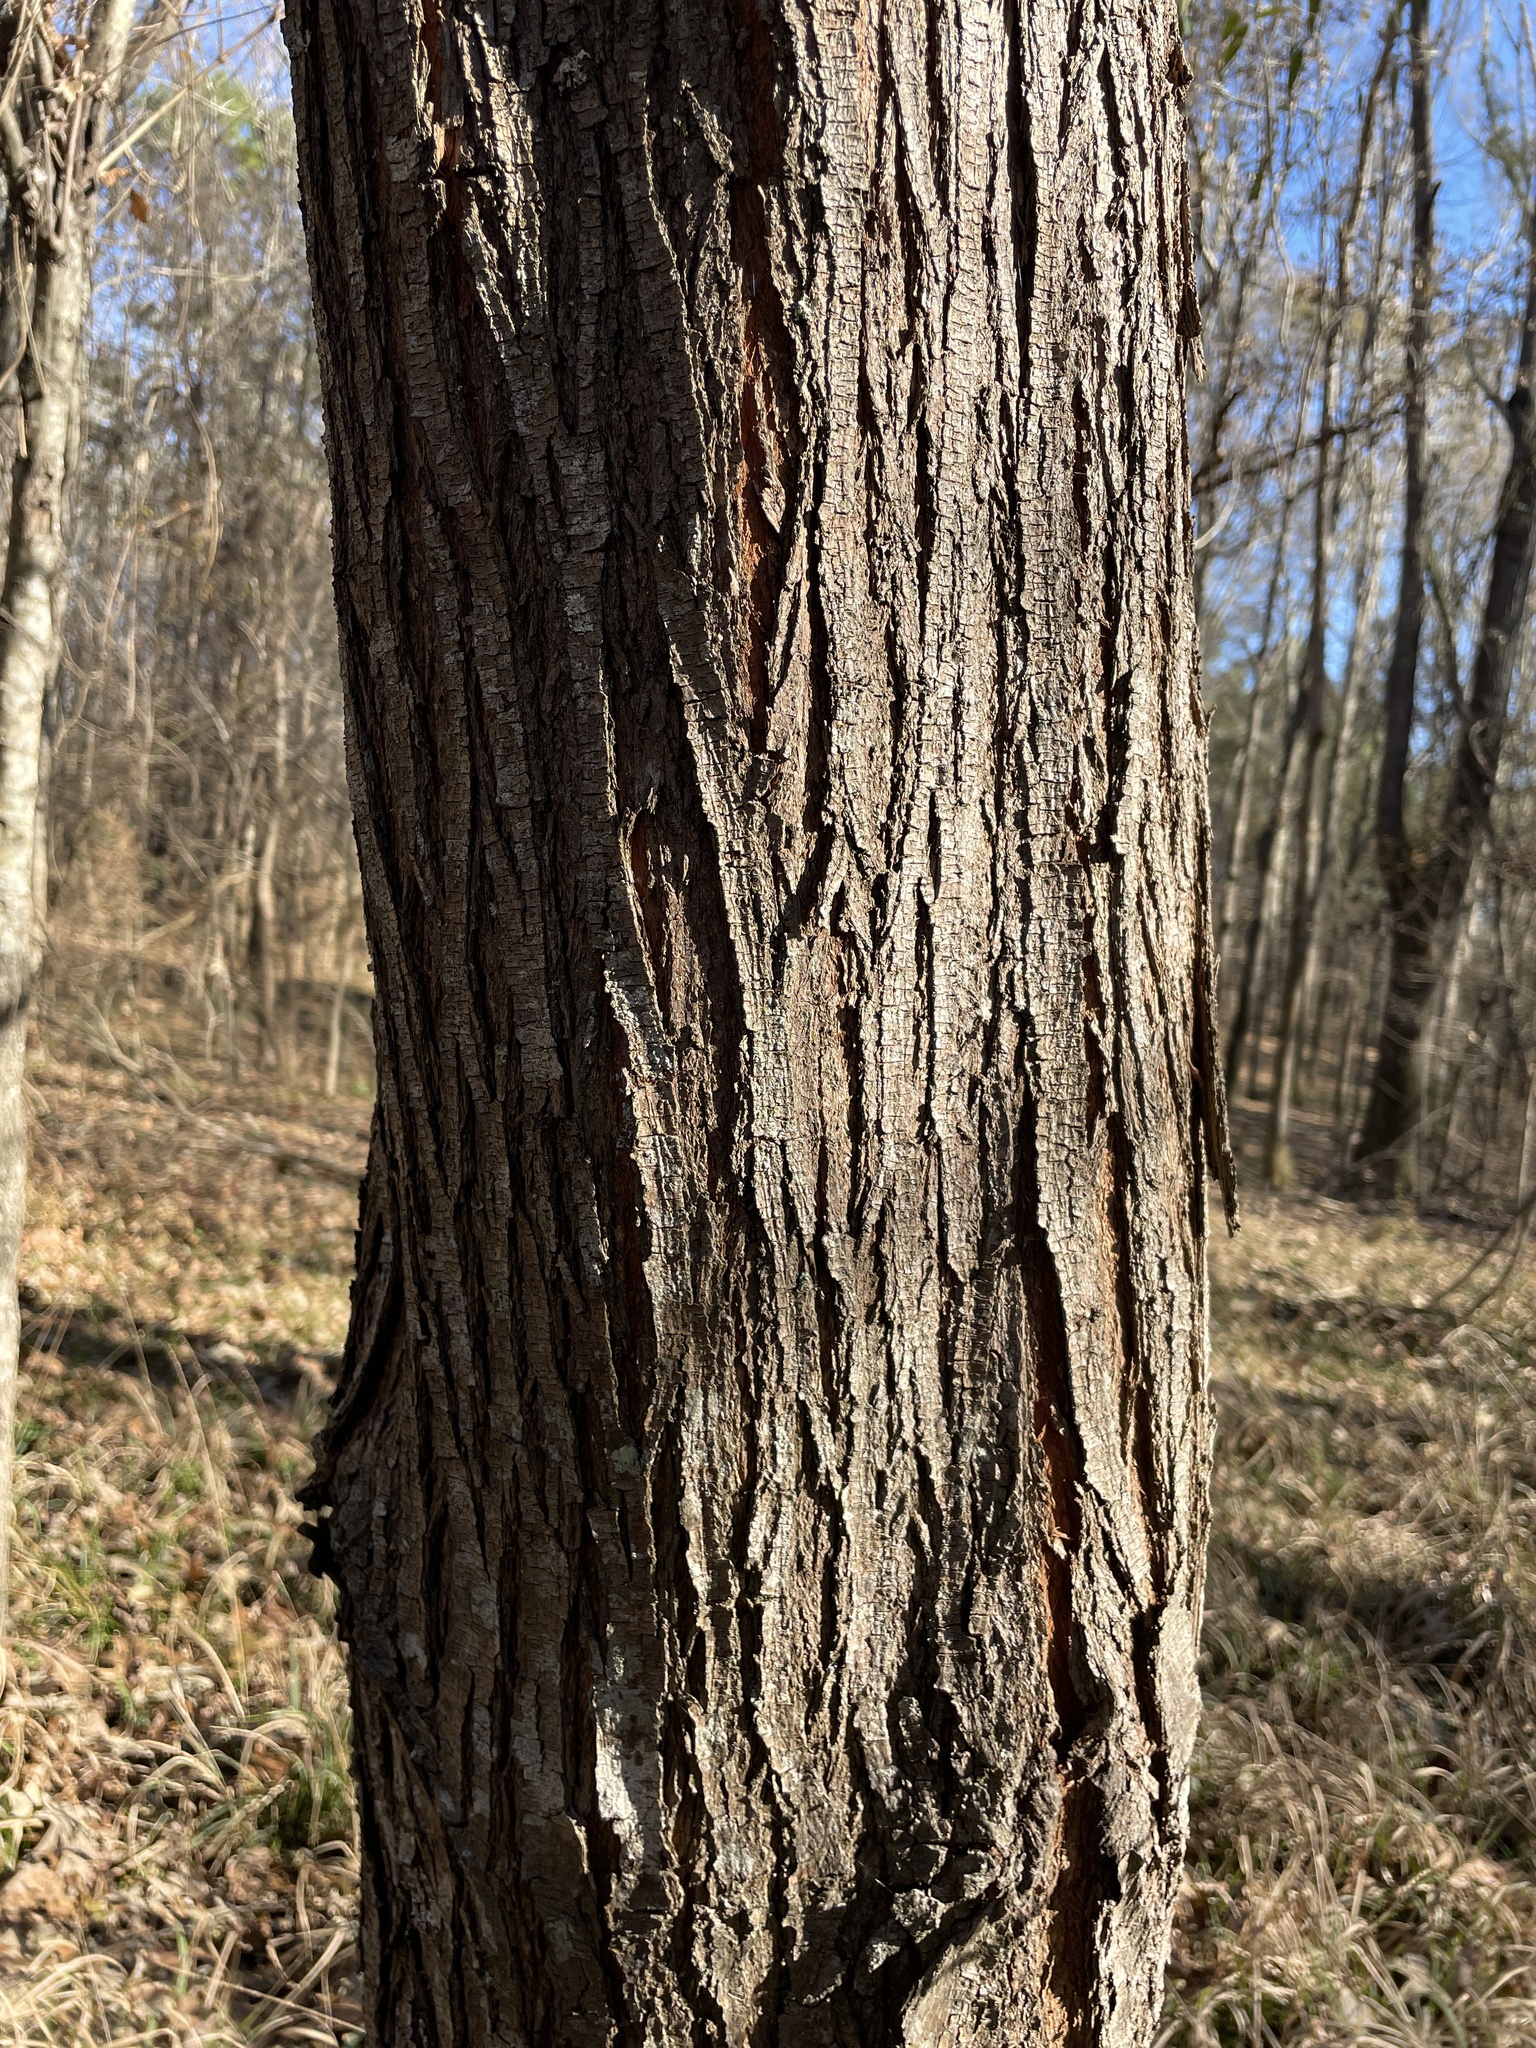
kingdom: Plantae
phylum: Tracheophyta
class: Magnoliopsida
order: Sapindales
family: Meliaceae
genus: Melia
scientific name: Melia azedarach
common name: Chinaberrytree
